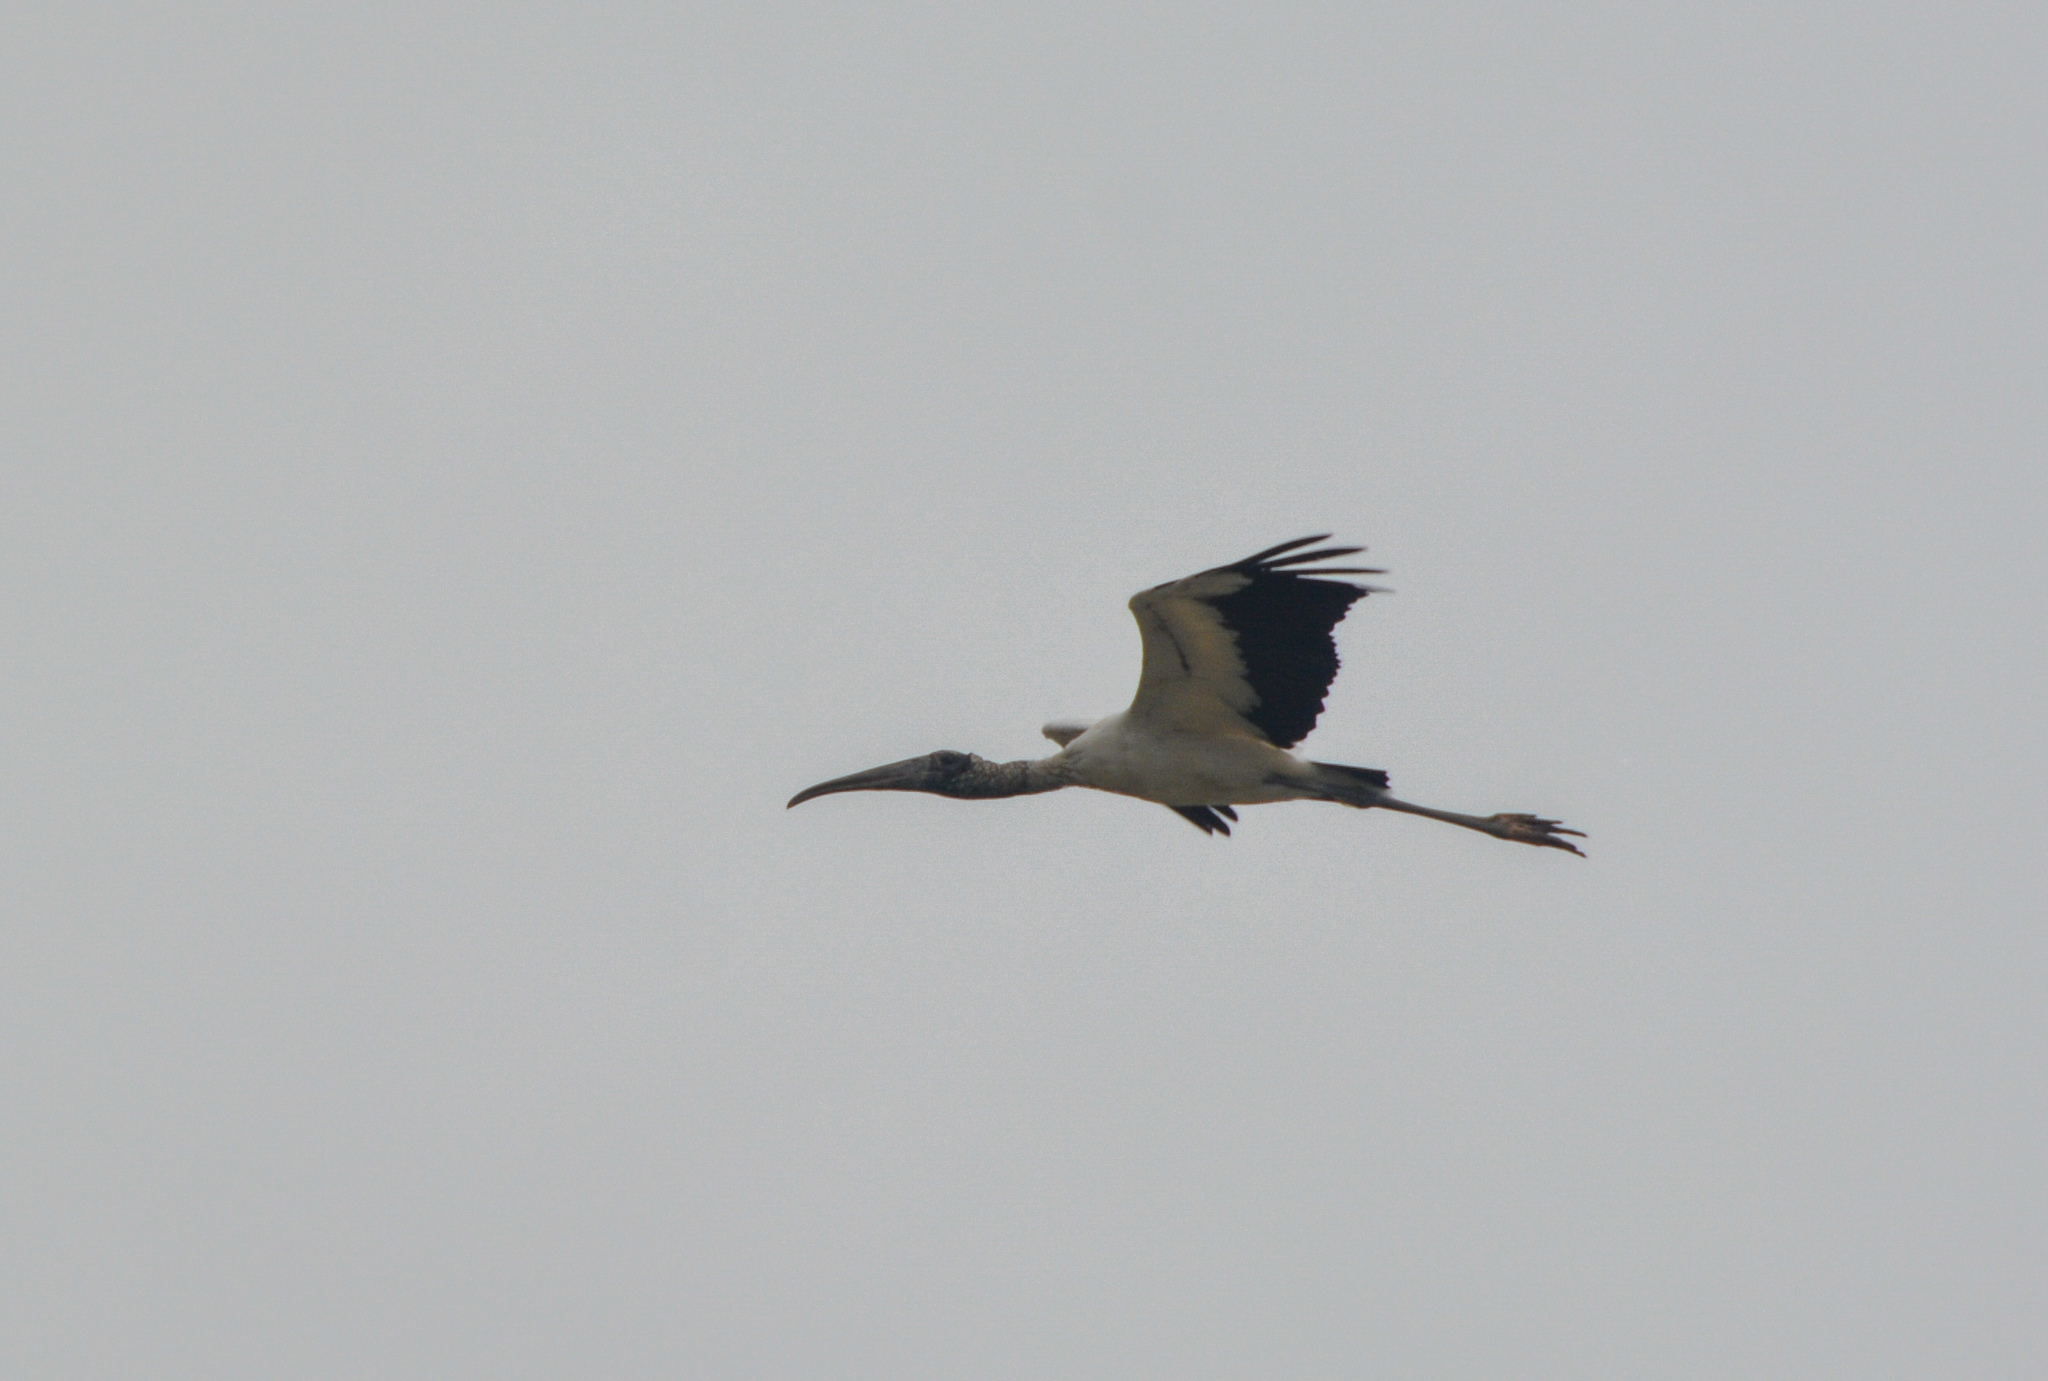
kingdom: Animalia
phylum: Chordata
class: Aves
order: Ciconiiformes
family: Ciconiidae
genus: Mycteria
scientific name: Mycteria americana
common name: Wood stork
